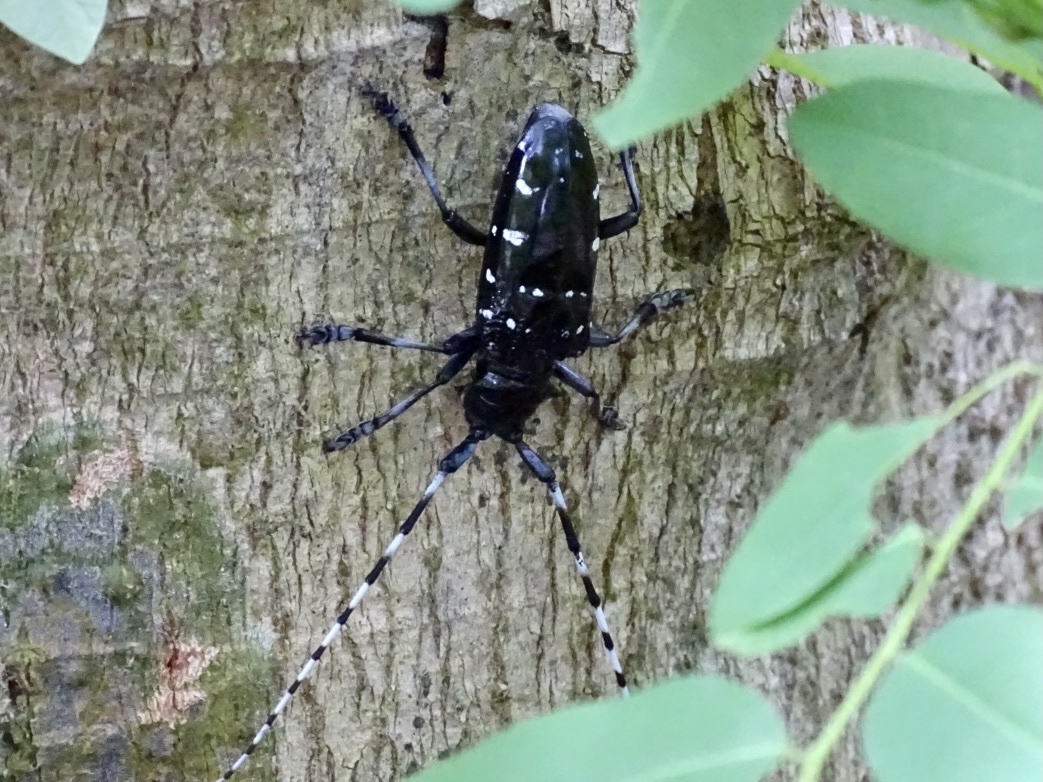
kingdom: Animalia
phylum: Arthropoda
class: Insecta
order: Coleoptera
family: Cerambycidae
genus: Anoplophora
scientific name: Anoplophora chinensis
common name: Citrus longhorned beetle
